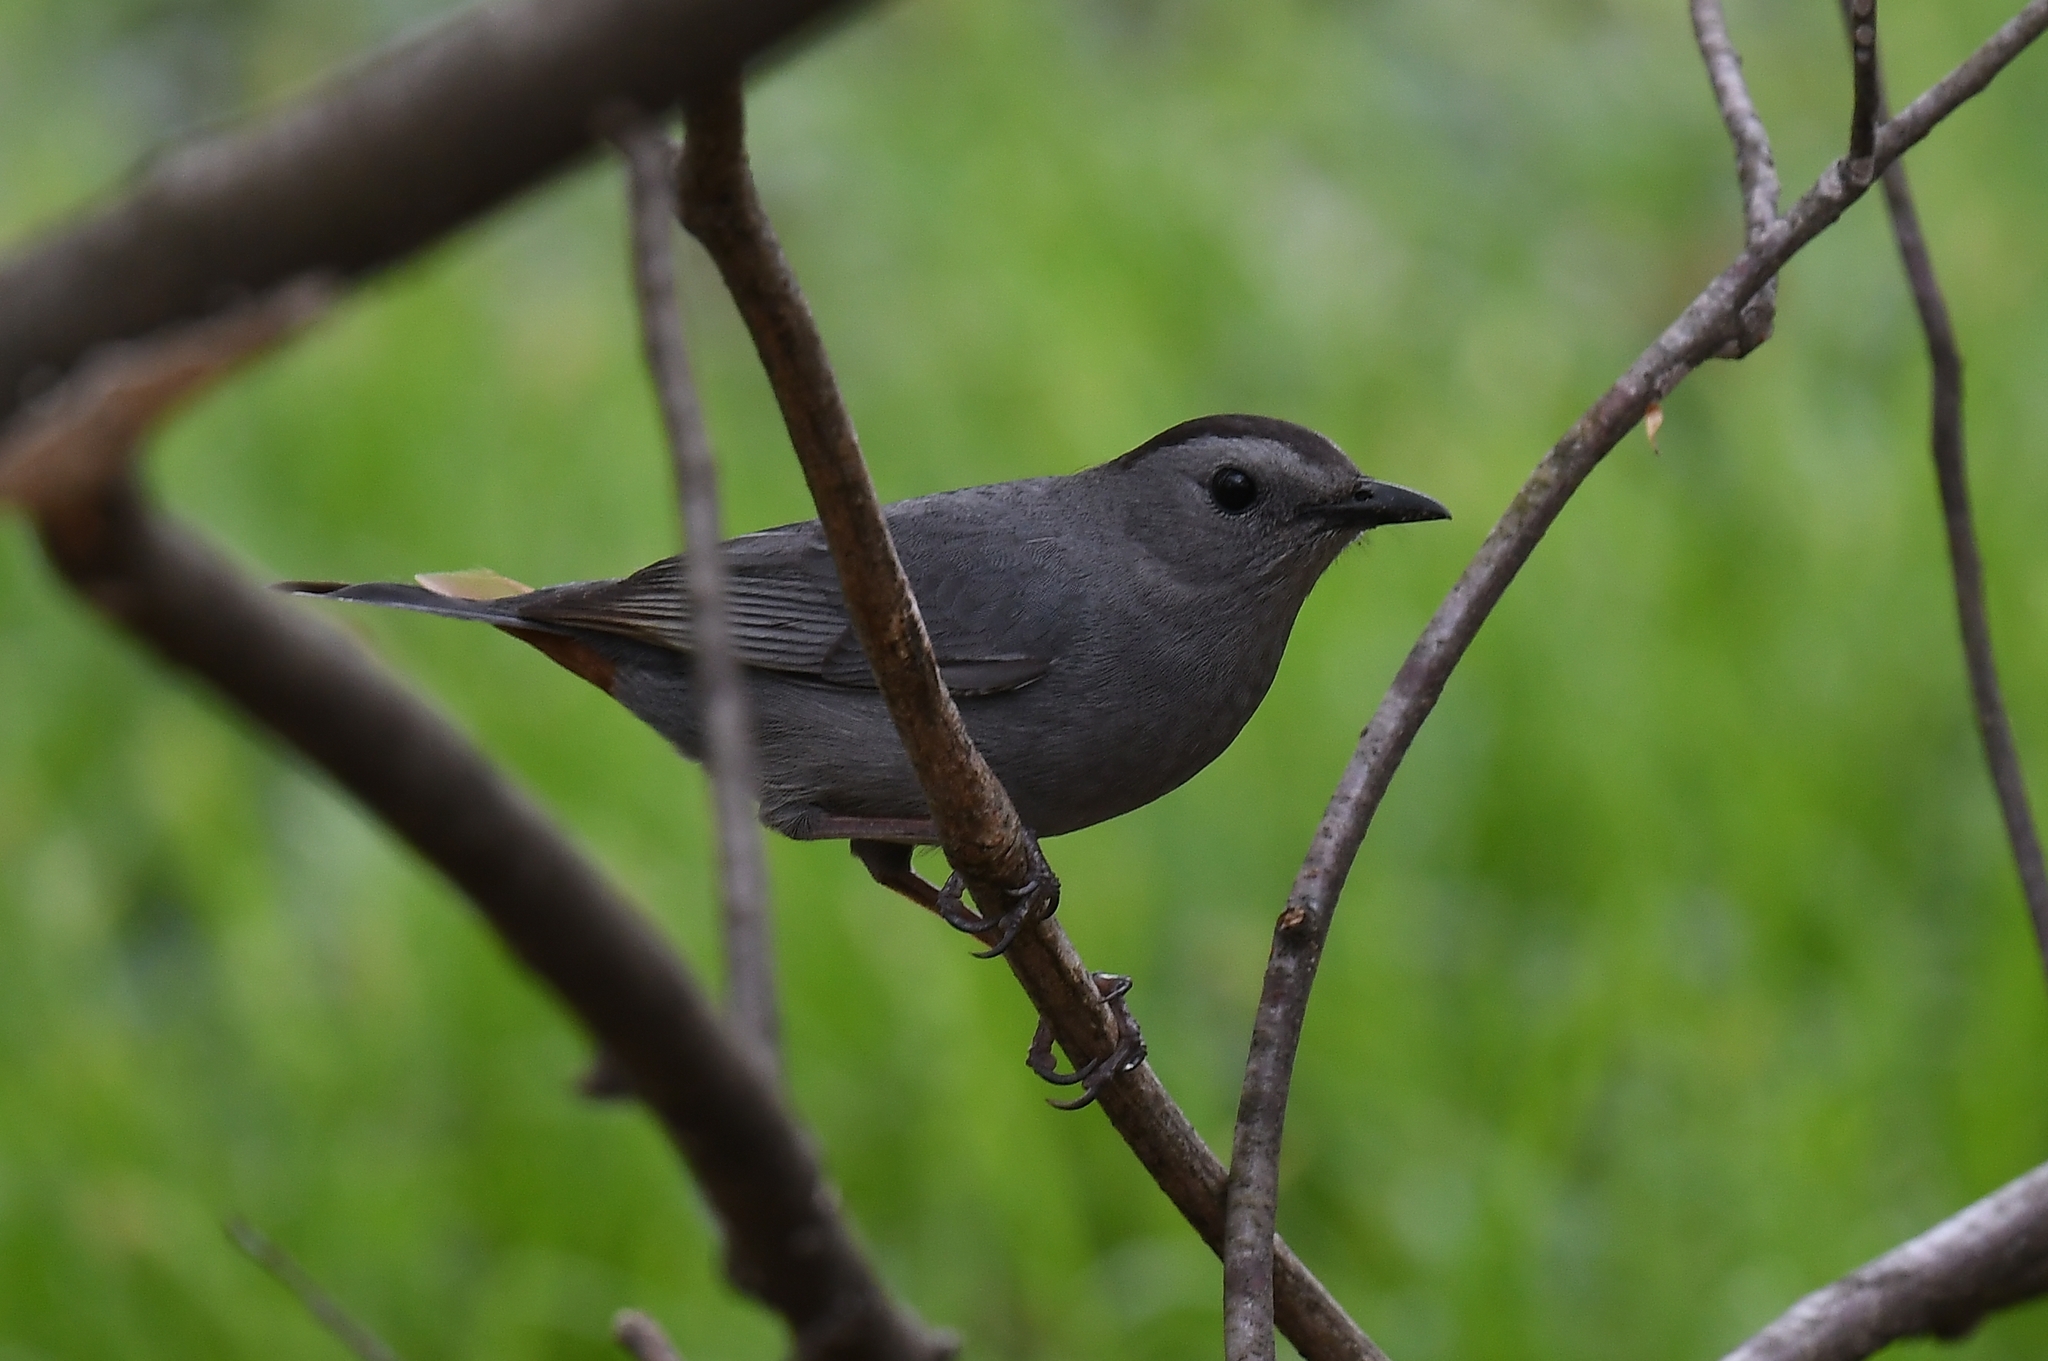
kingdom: Animalia
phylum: Chordata
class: Aves
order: Passeriformes
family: Mimidae
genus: Dumetella
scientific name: Dumetella carolinensis
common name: Gray catbird
